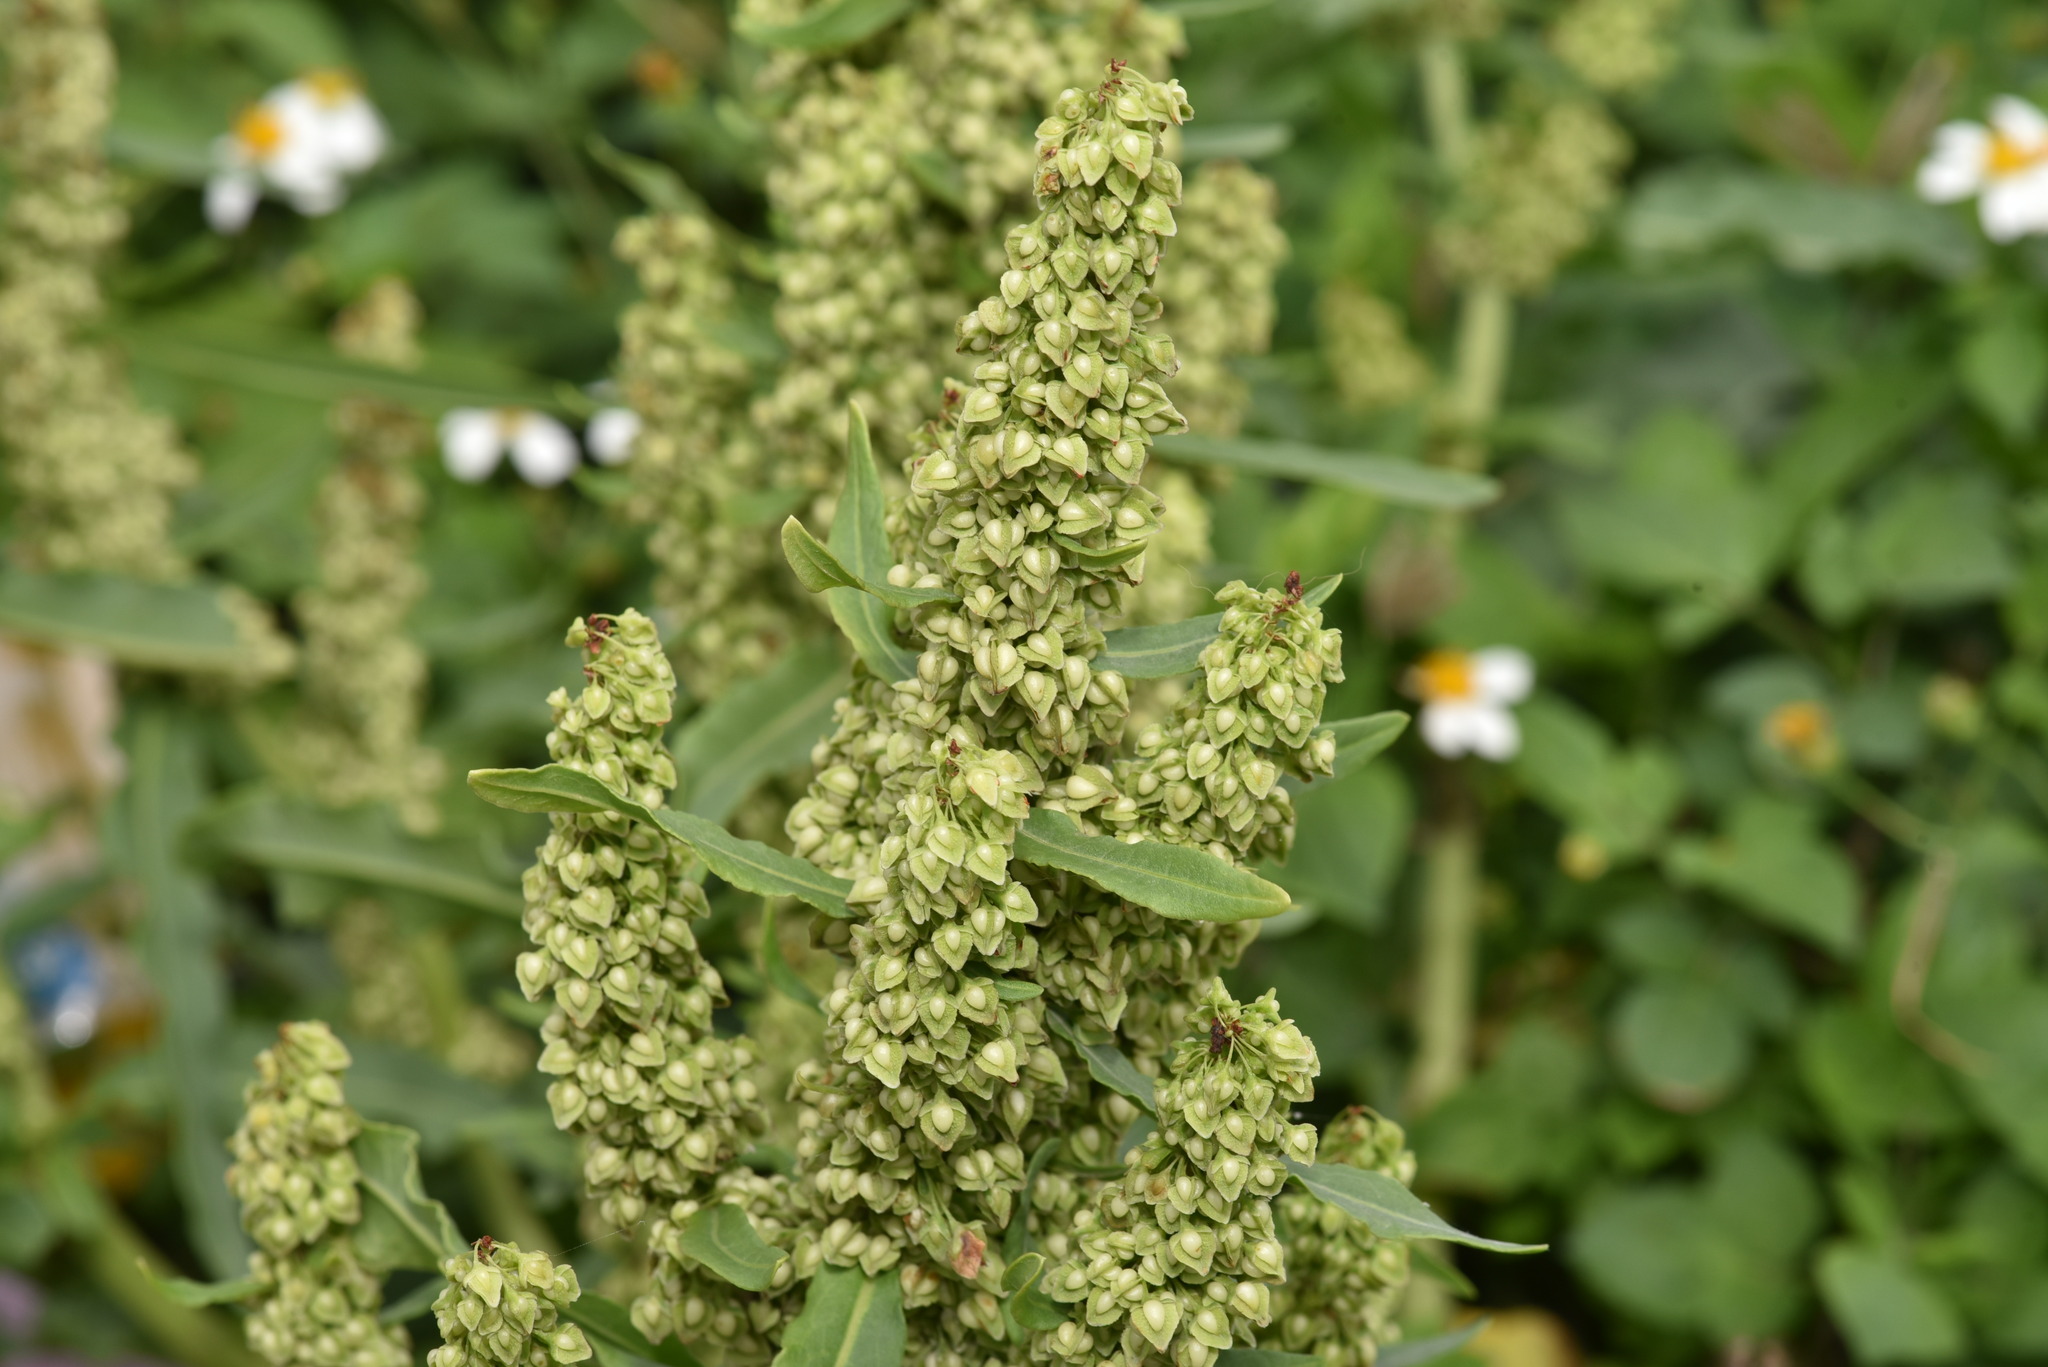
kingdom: Plantae
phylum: Tracheophyta
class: Magnoliopsida
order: Caryophyllales
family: Polygonaceae
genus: Rumex
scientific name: Rumex japonicus
